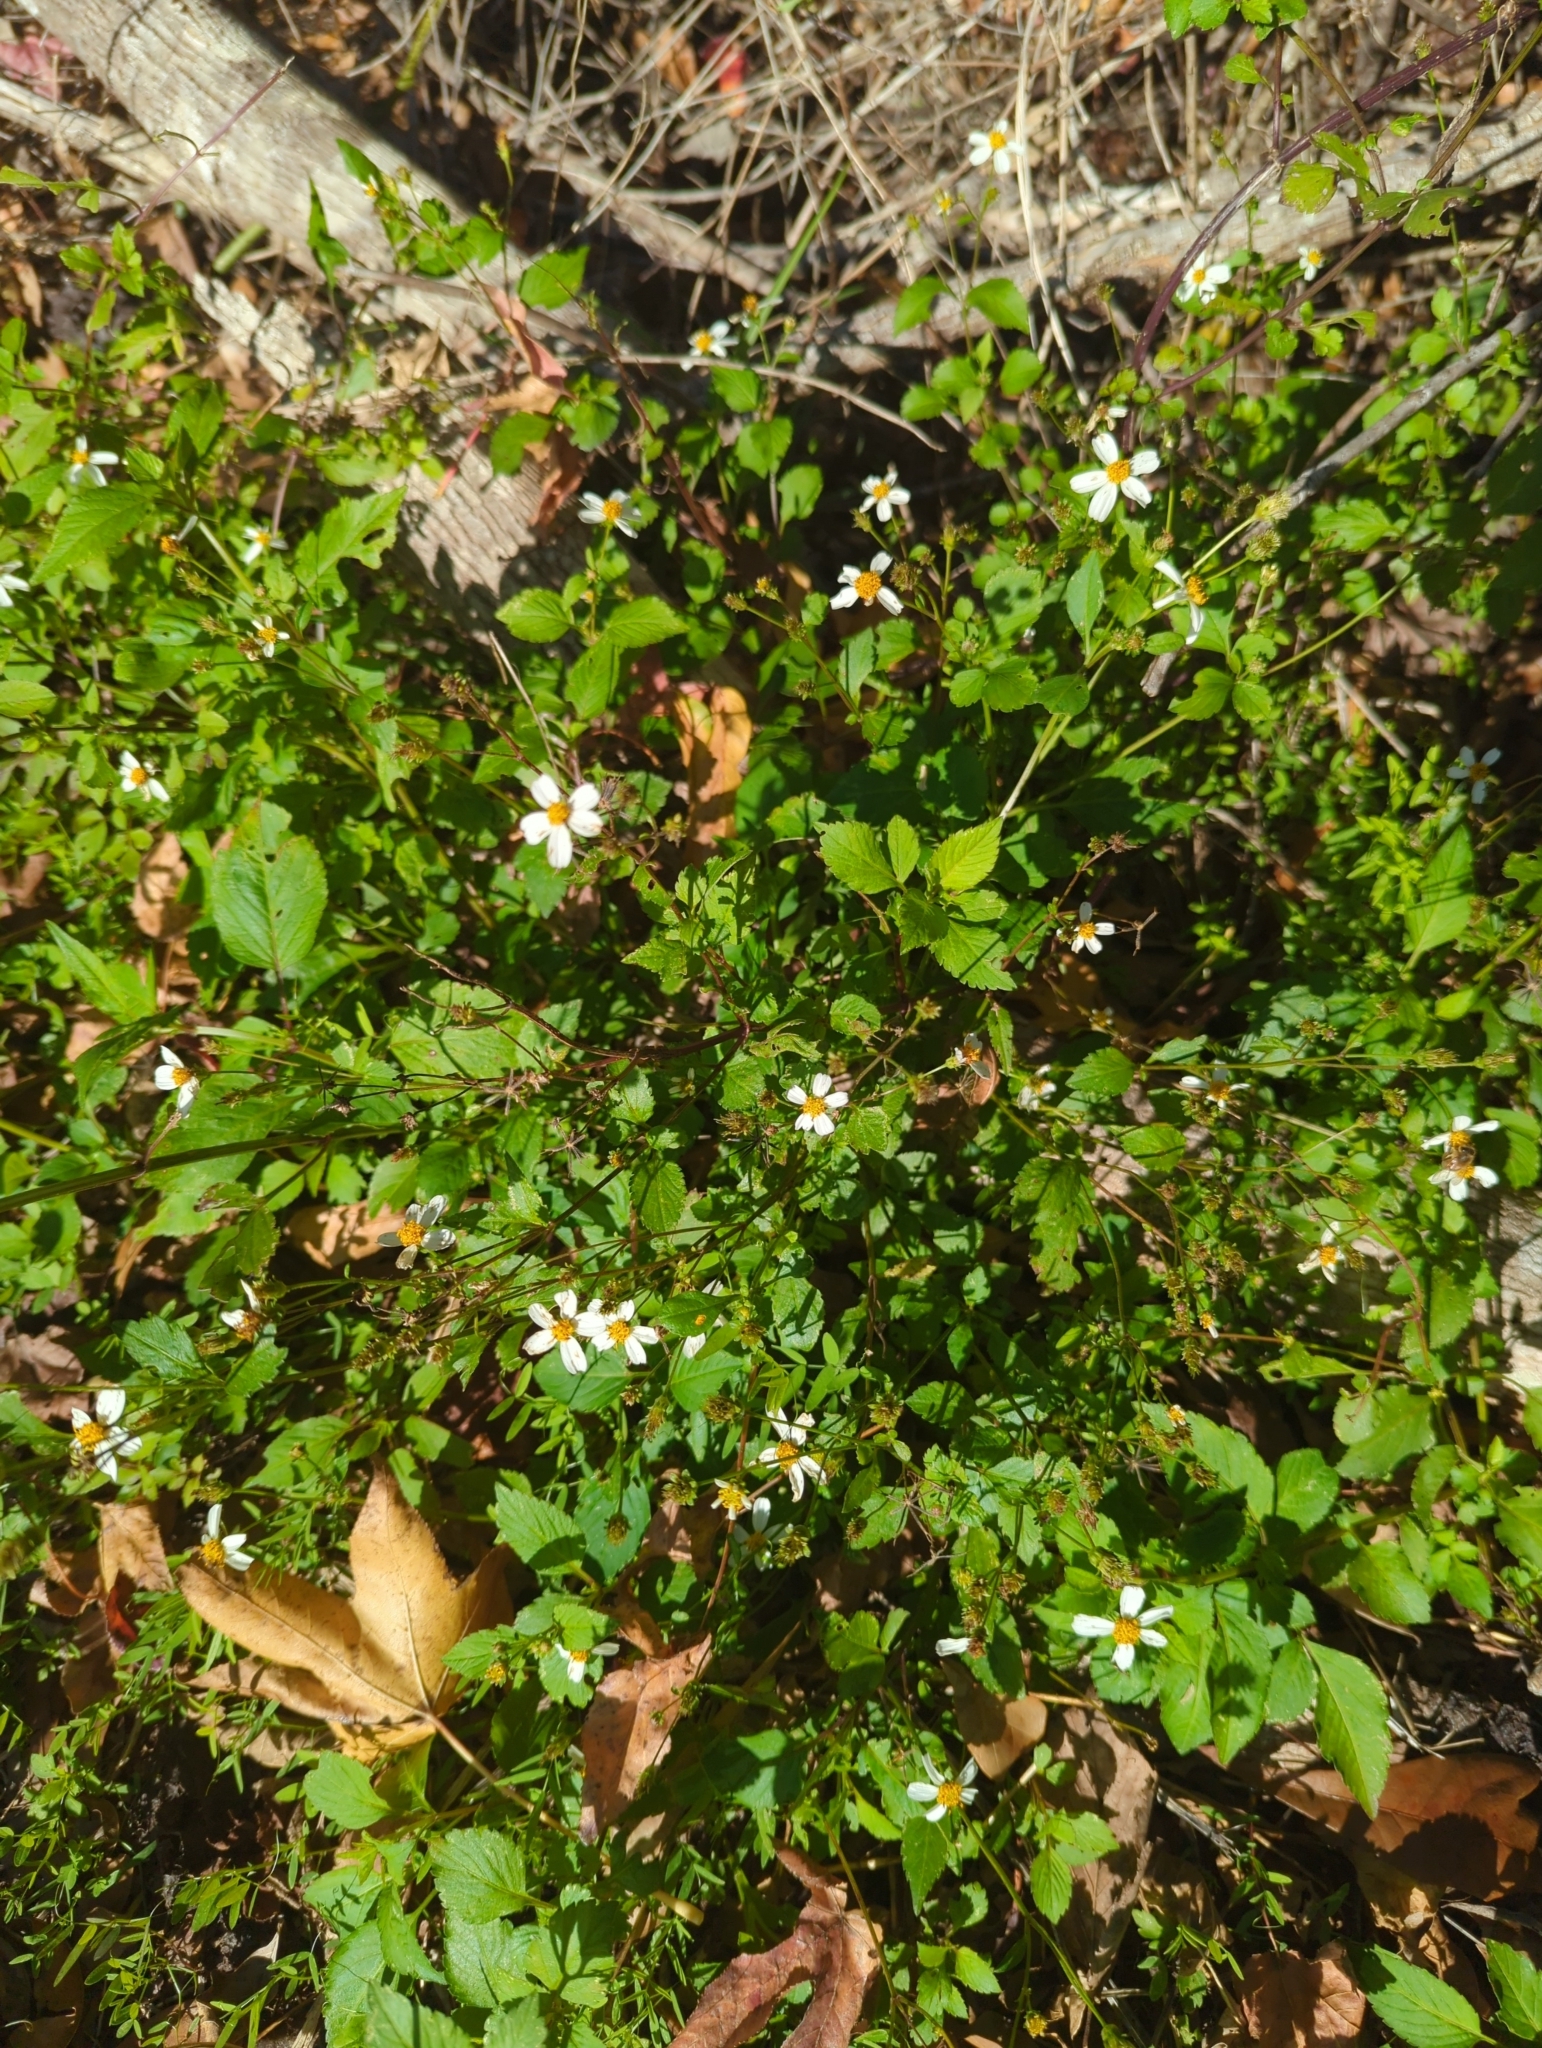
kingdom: Plantae
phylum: Tracheophyta
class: Magnoliopsida
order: Asterales
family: Asteraceae
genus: Bidens
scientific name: Bidens alba
